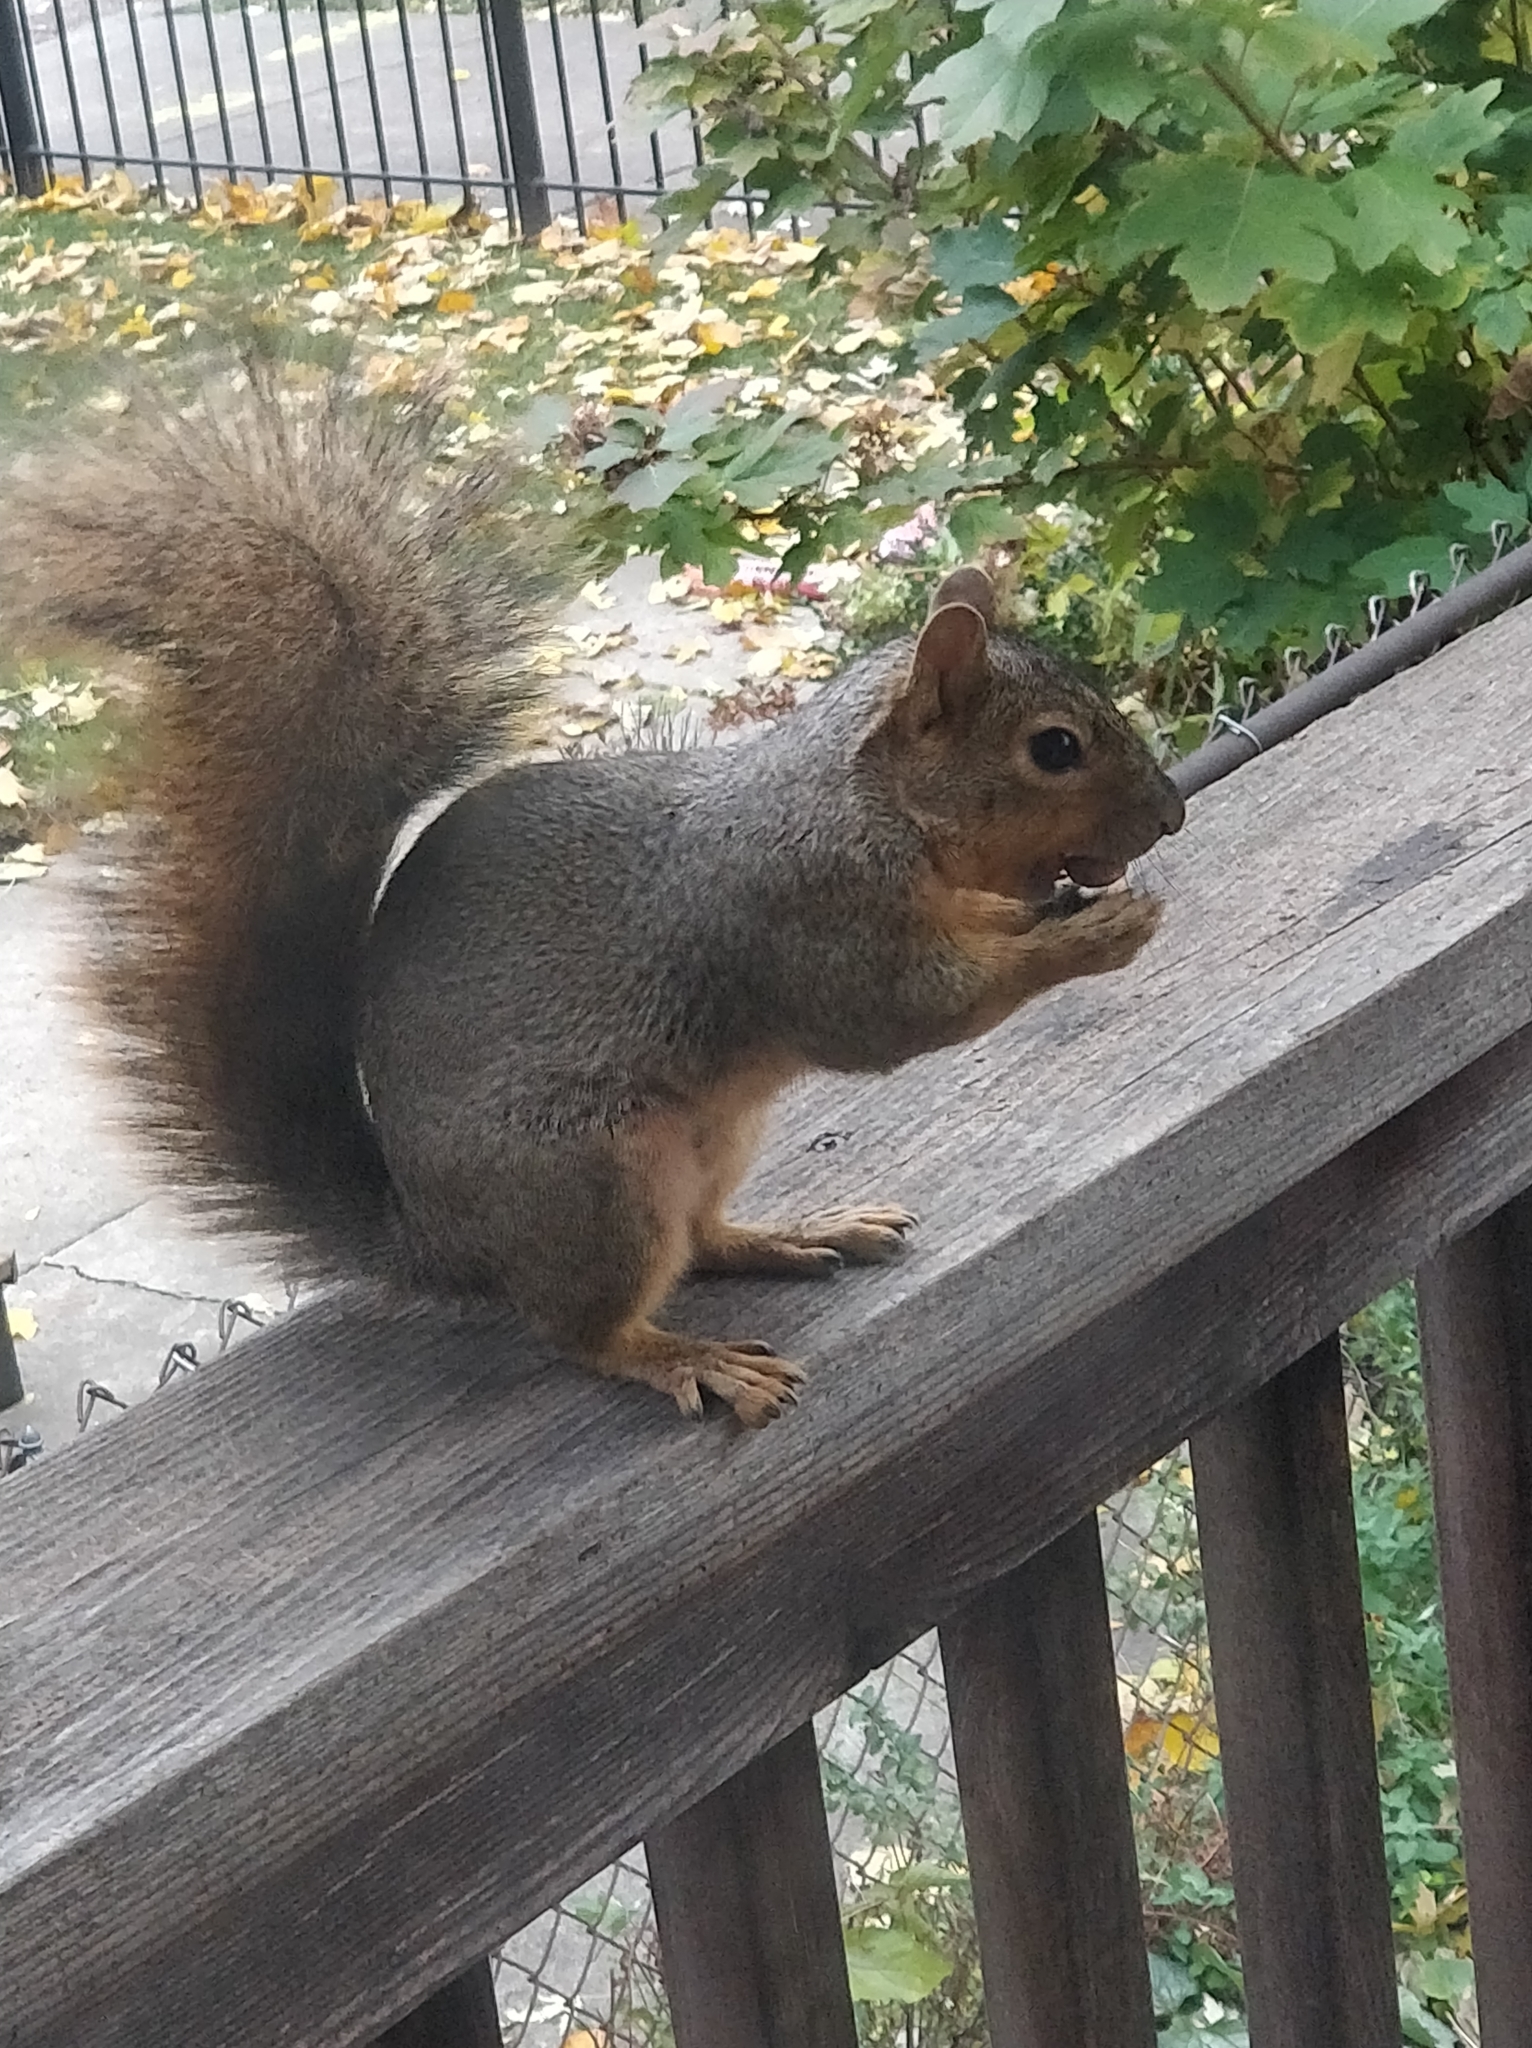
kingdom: Animalia
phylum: Chordata
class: Mammalia
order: Rodentia
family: Sciuridae
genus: Sciurus
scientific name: Sciurus niger
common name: Fox squirrel
